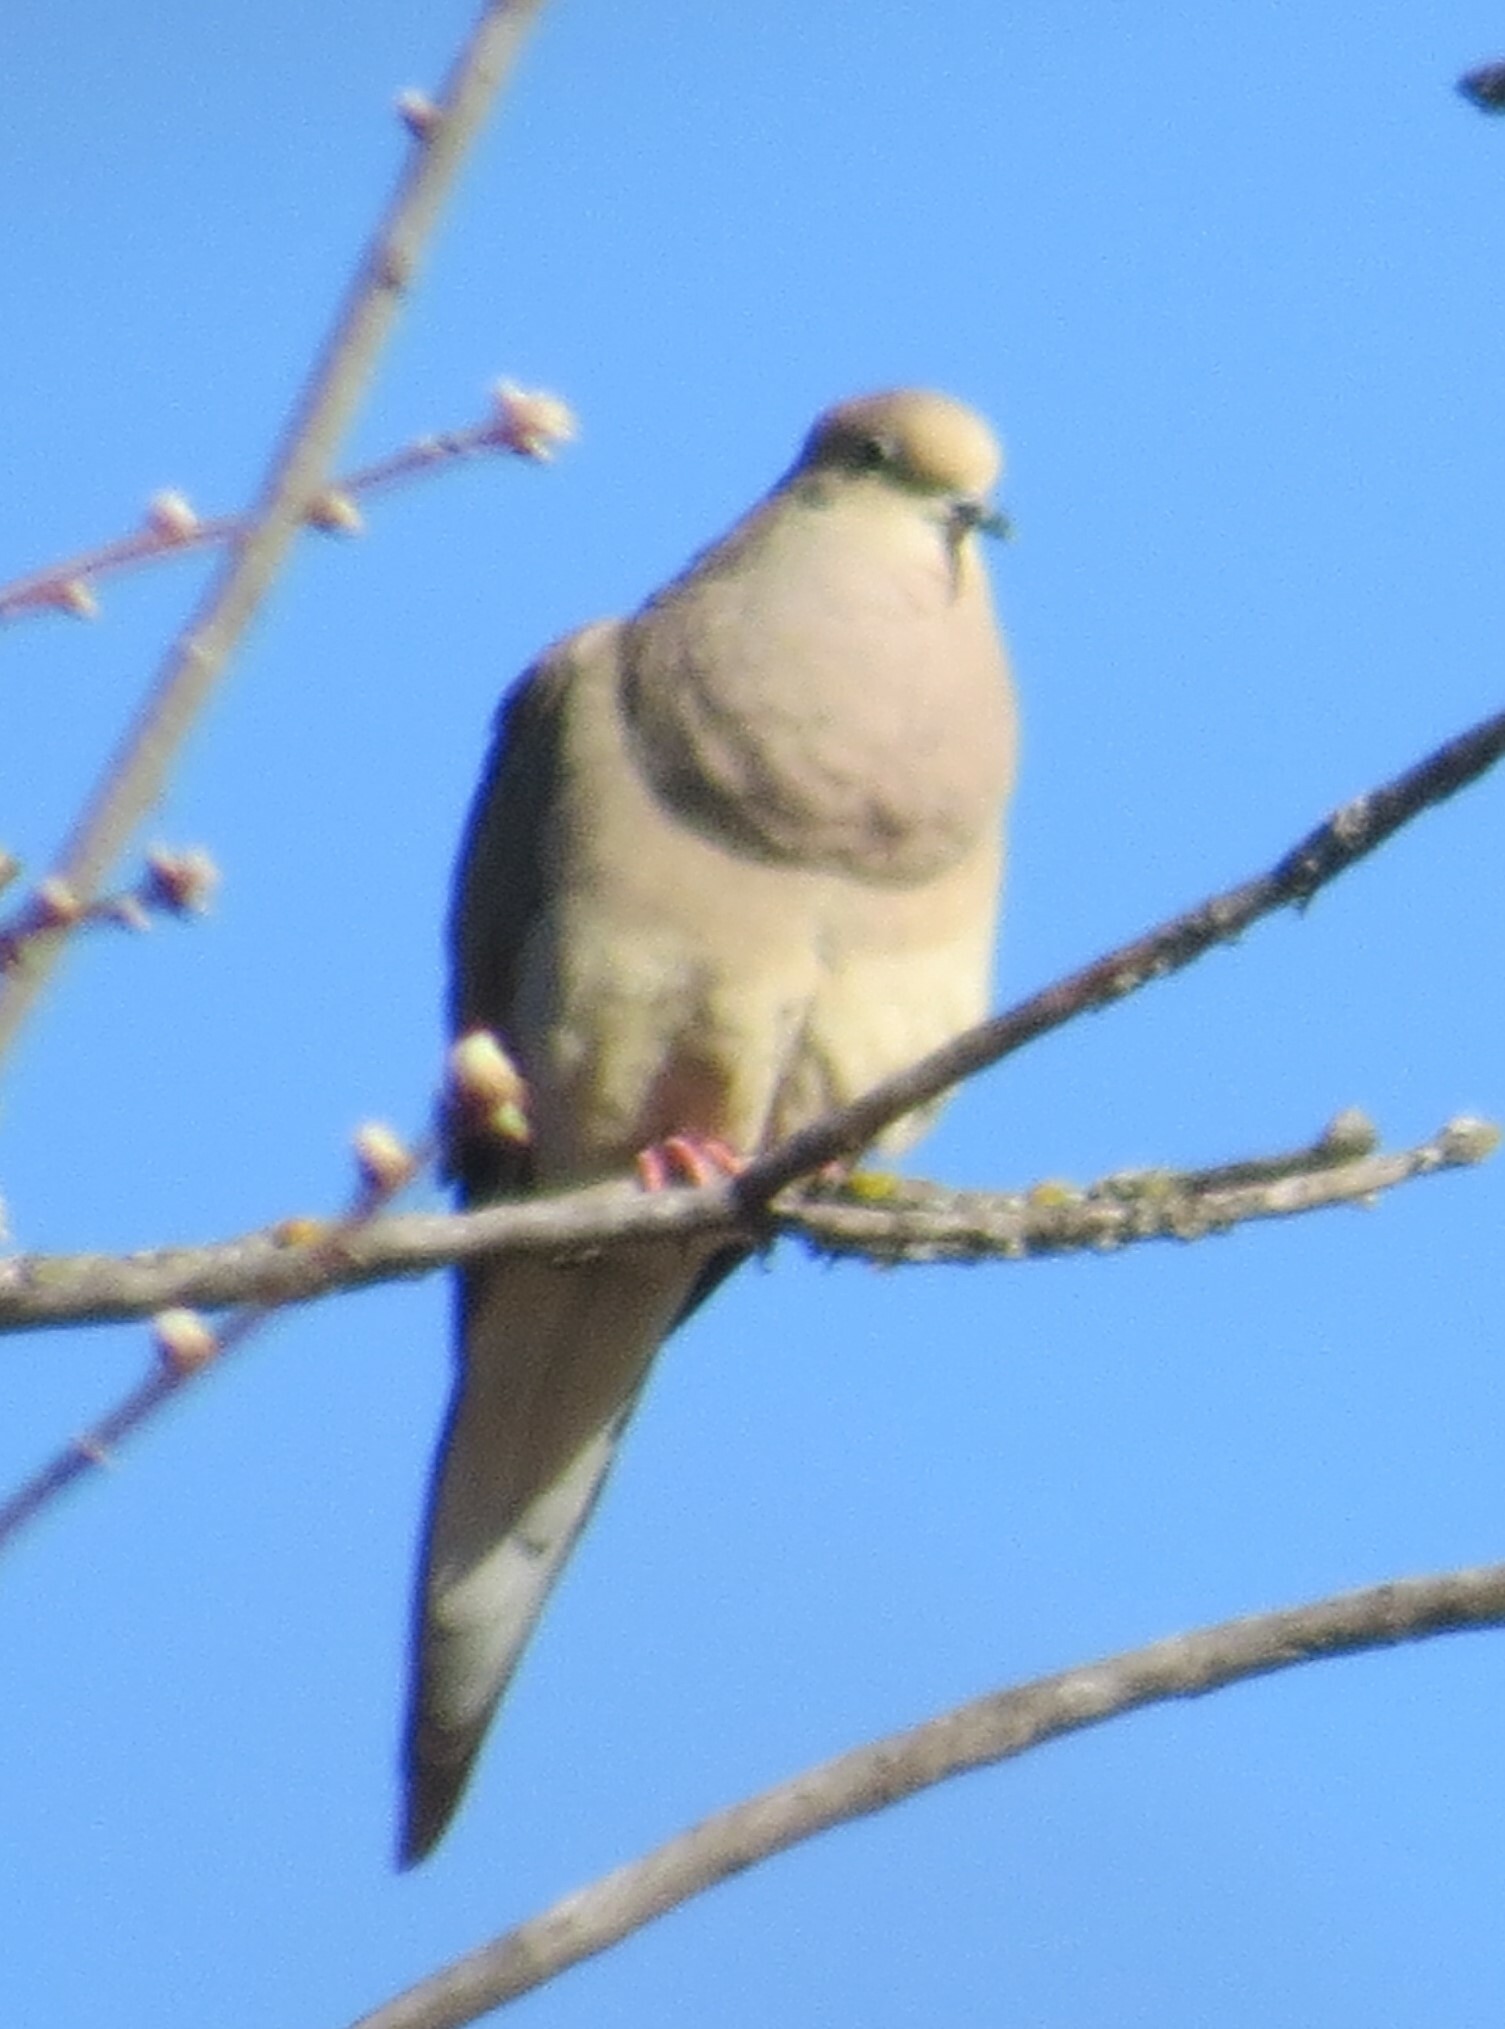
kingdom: Animalia
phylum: Chordata
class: Aves
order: Columbiformes
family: Columbidae
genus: Zenaida
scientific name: Zenaida macroura
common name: Mourning dove
